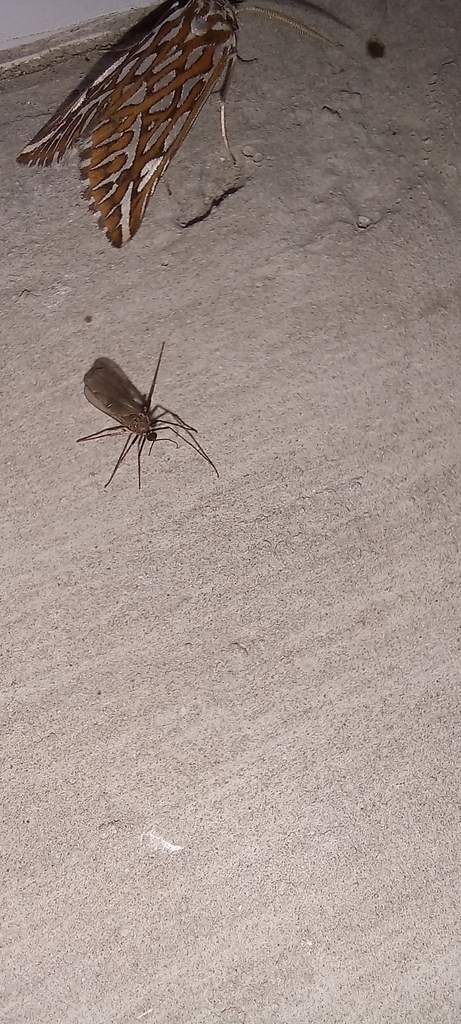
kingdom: Animalia
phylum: Arthropoda
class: Insecta
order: Lepidoptera
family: Geometridae
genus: Argyrophora
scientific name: Argyrophora trofonia
